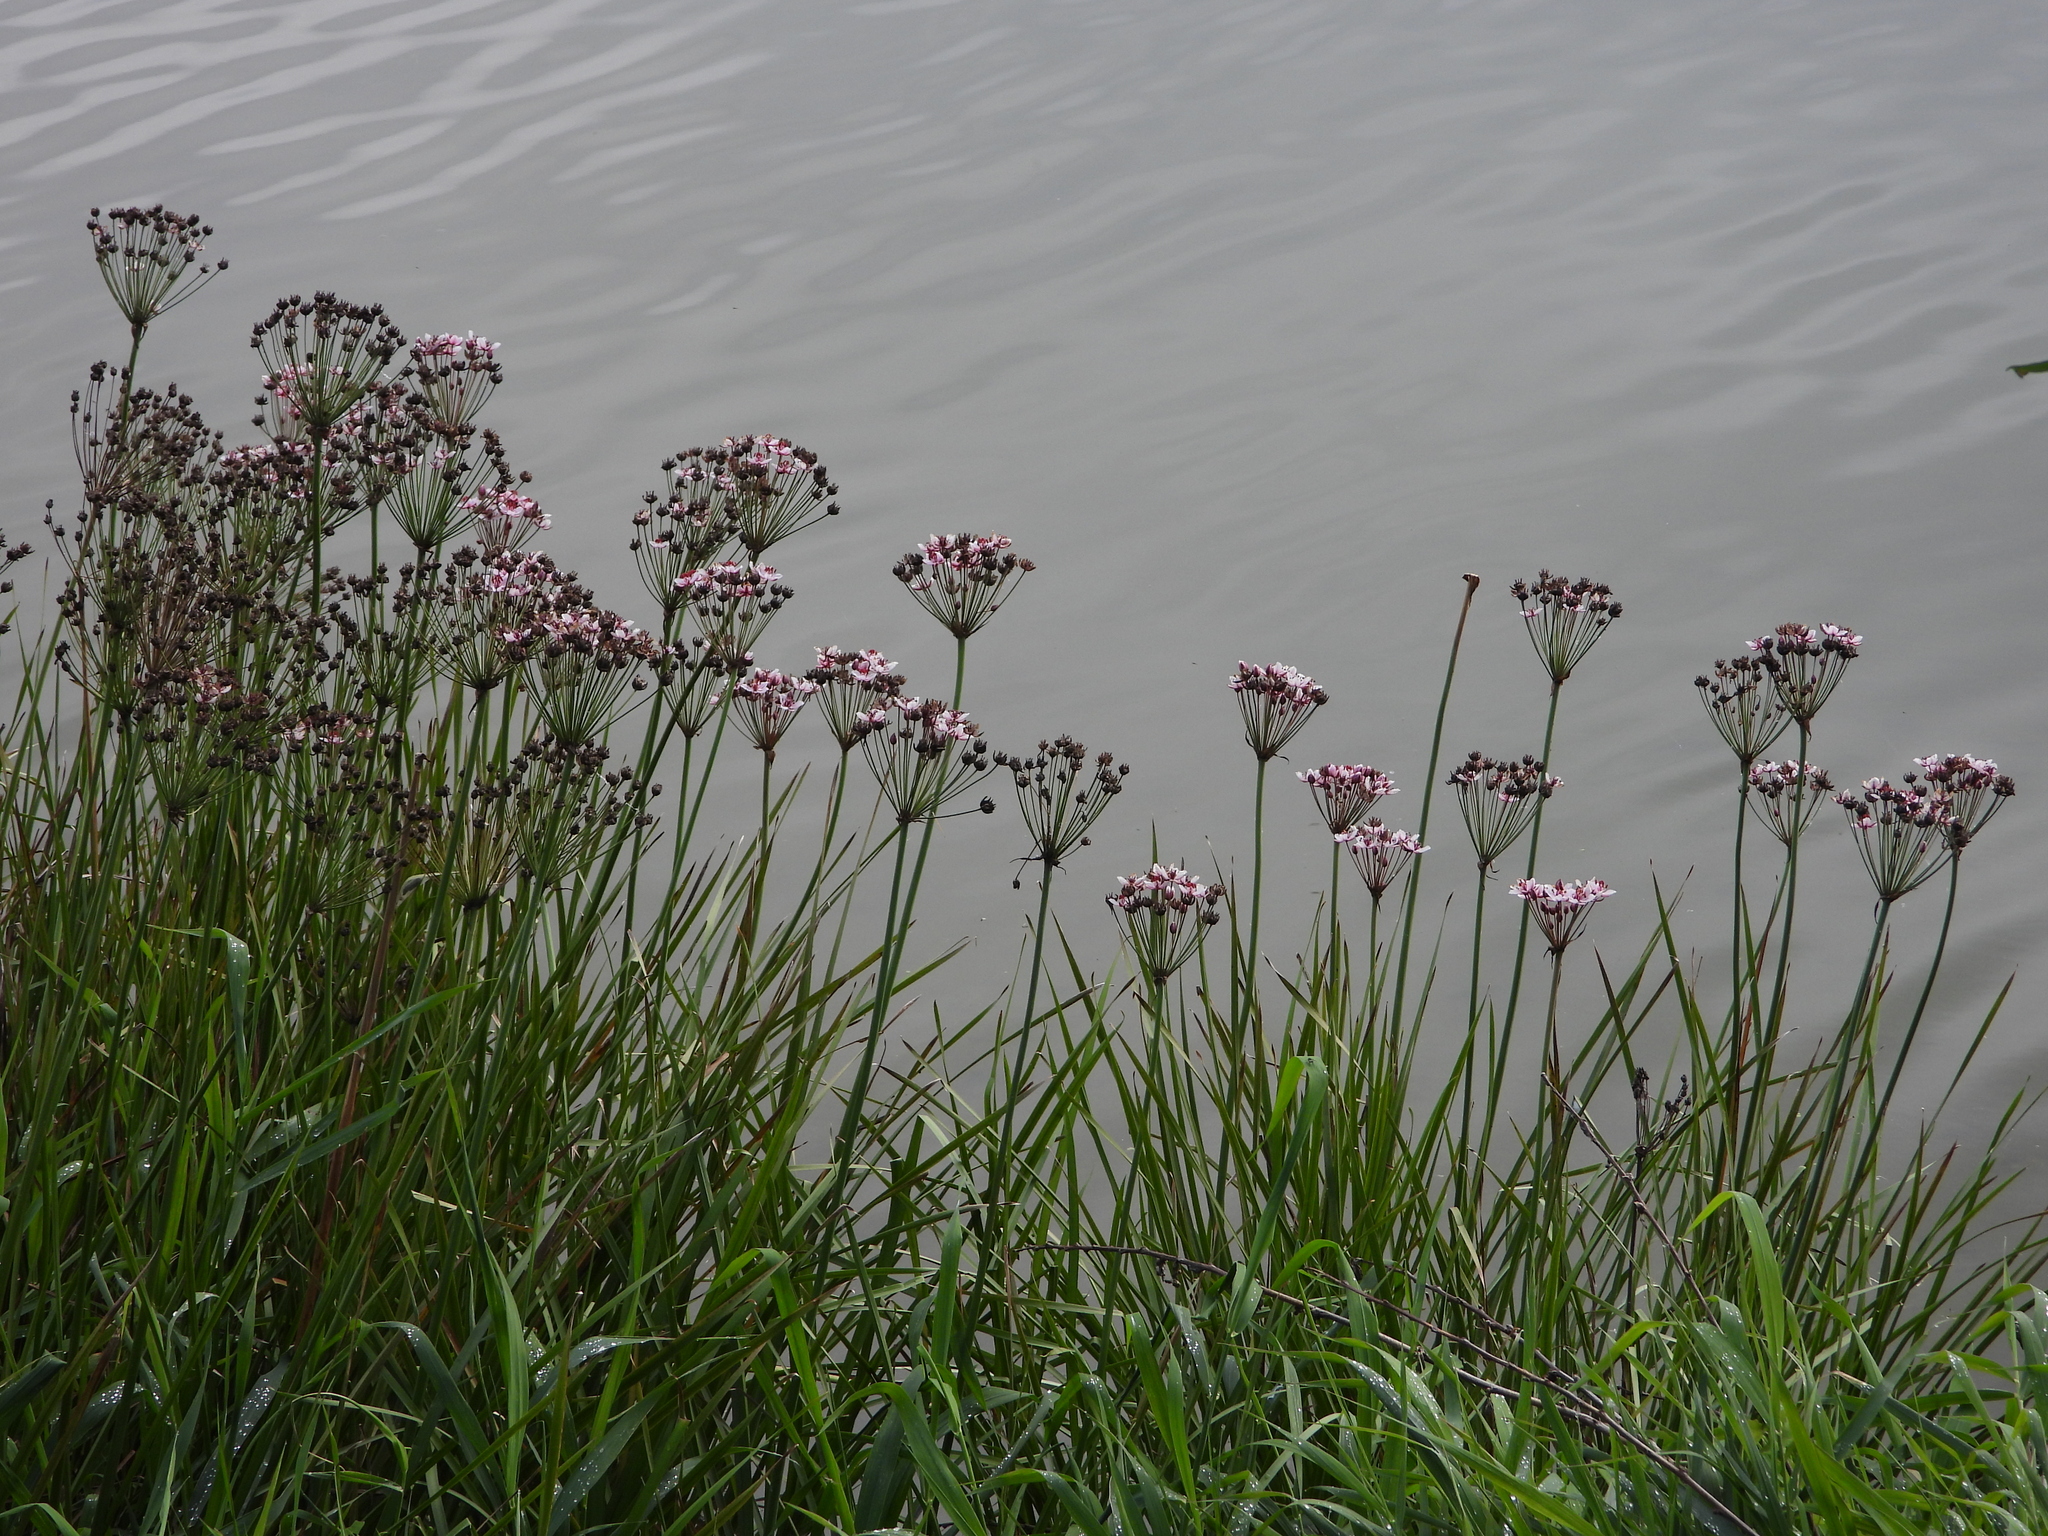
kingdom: Plantae
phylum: Tracheophyta
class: Liliopsida
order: Alismatales
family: Butomaceae
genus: Butomus
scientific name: Butomus umbellatus
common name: Flowering-rush
